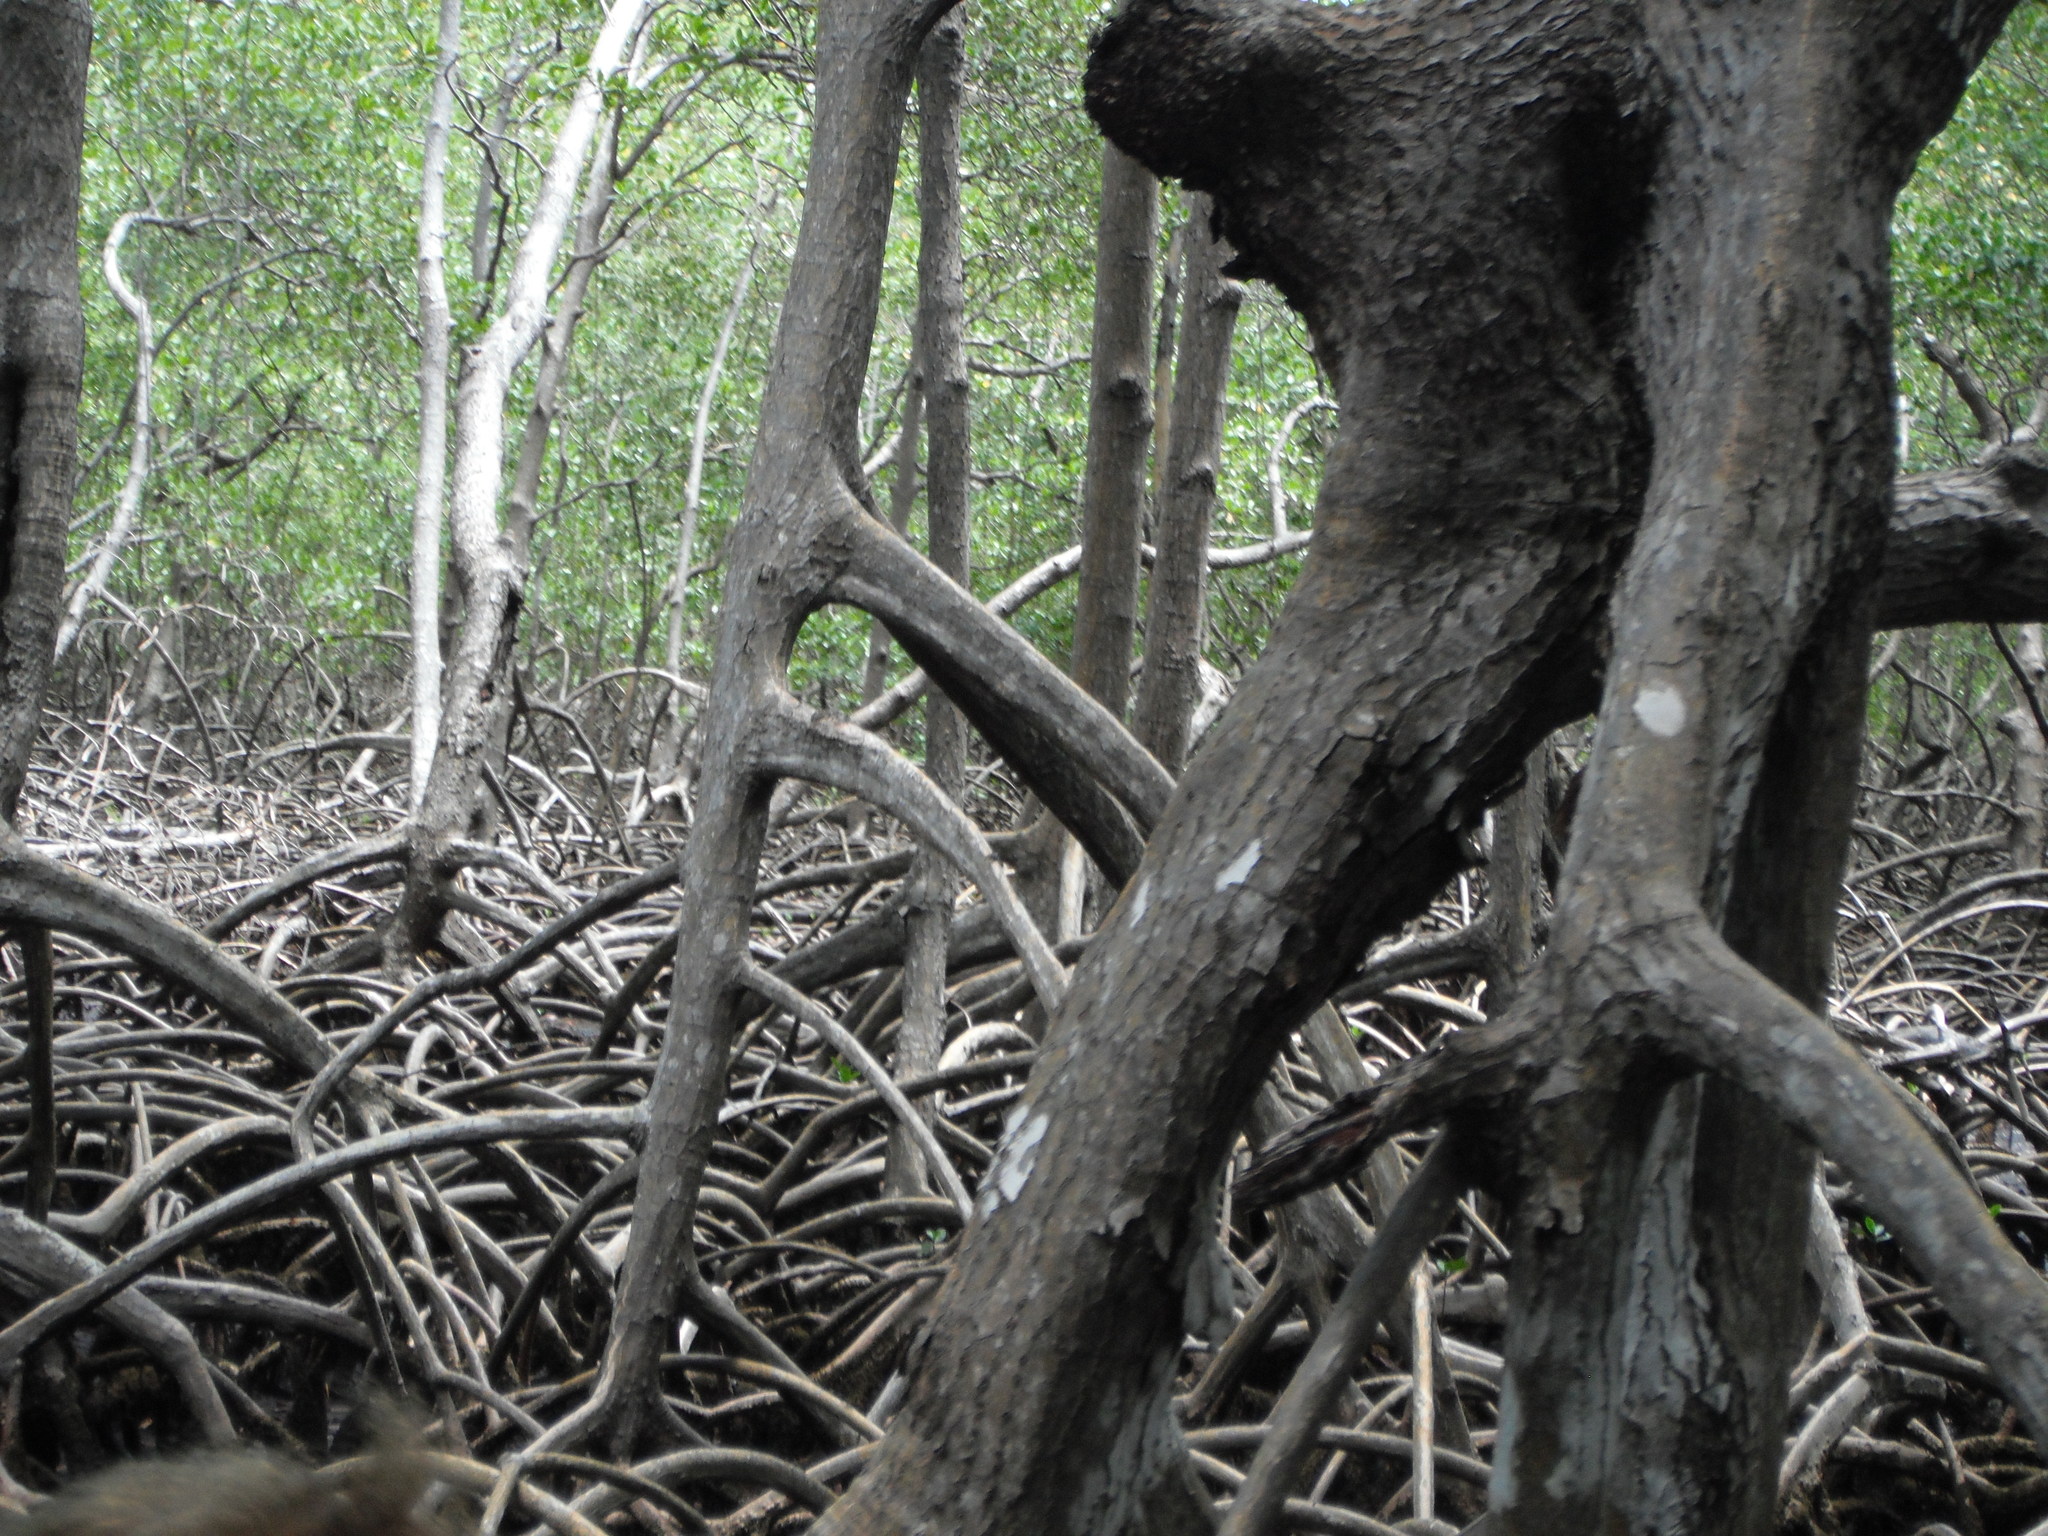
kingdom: Plantae
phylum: Tracheophyta
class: Magnoliopsida
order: Malpighiales
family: Rhizophoraceae
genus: Rhizophora
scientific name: Rhizophora mangle
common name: Red mangrove
